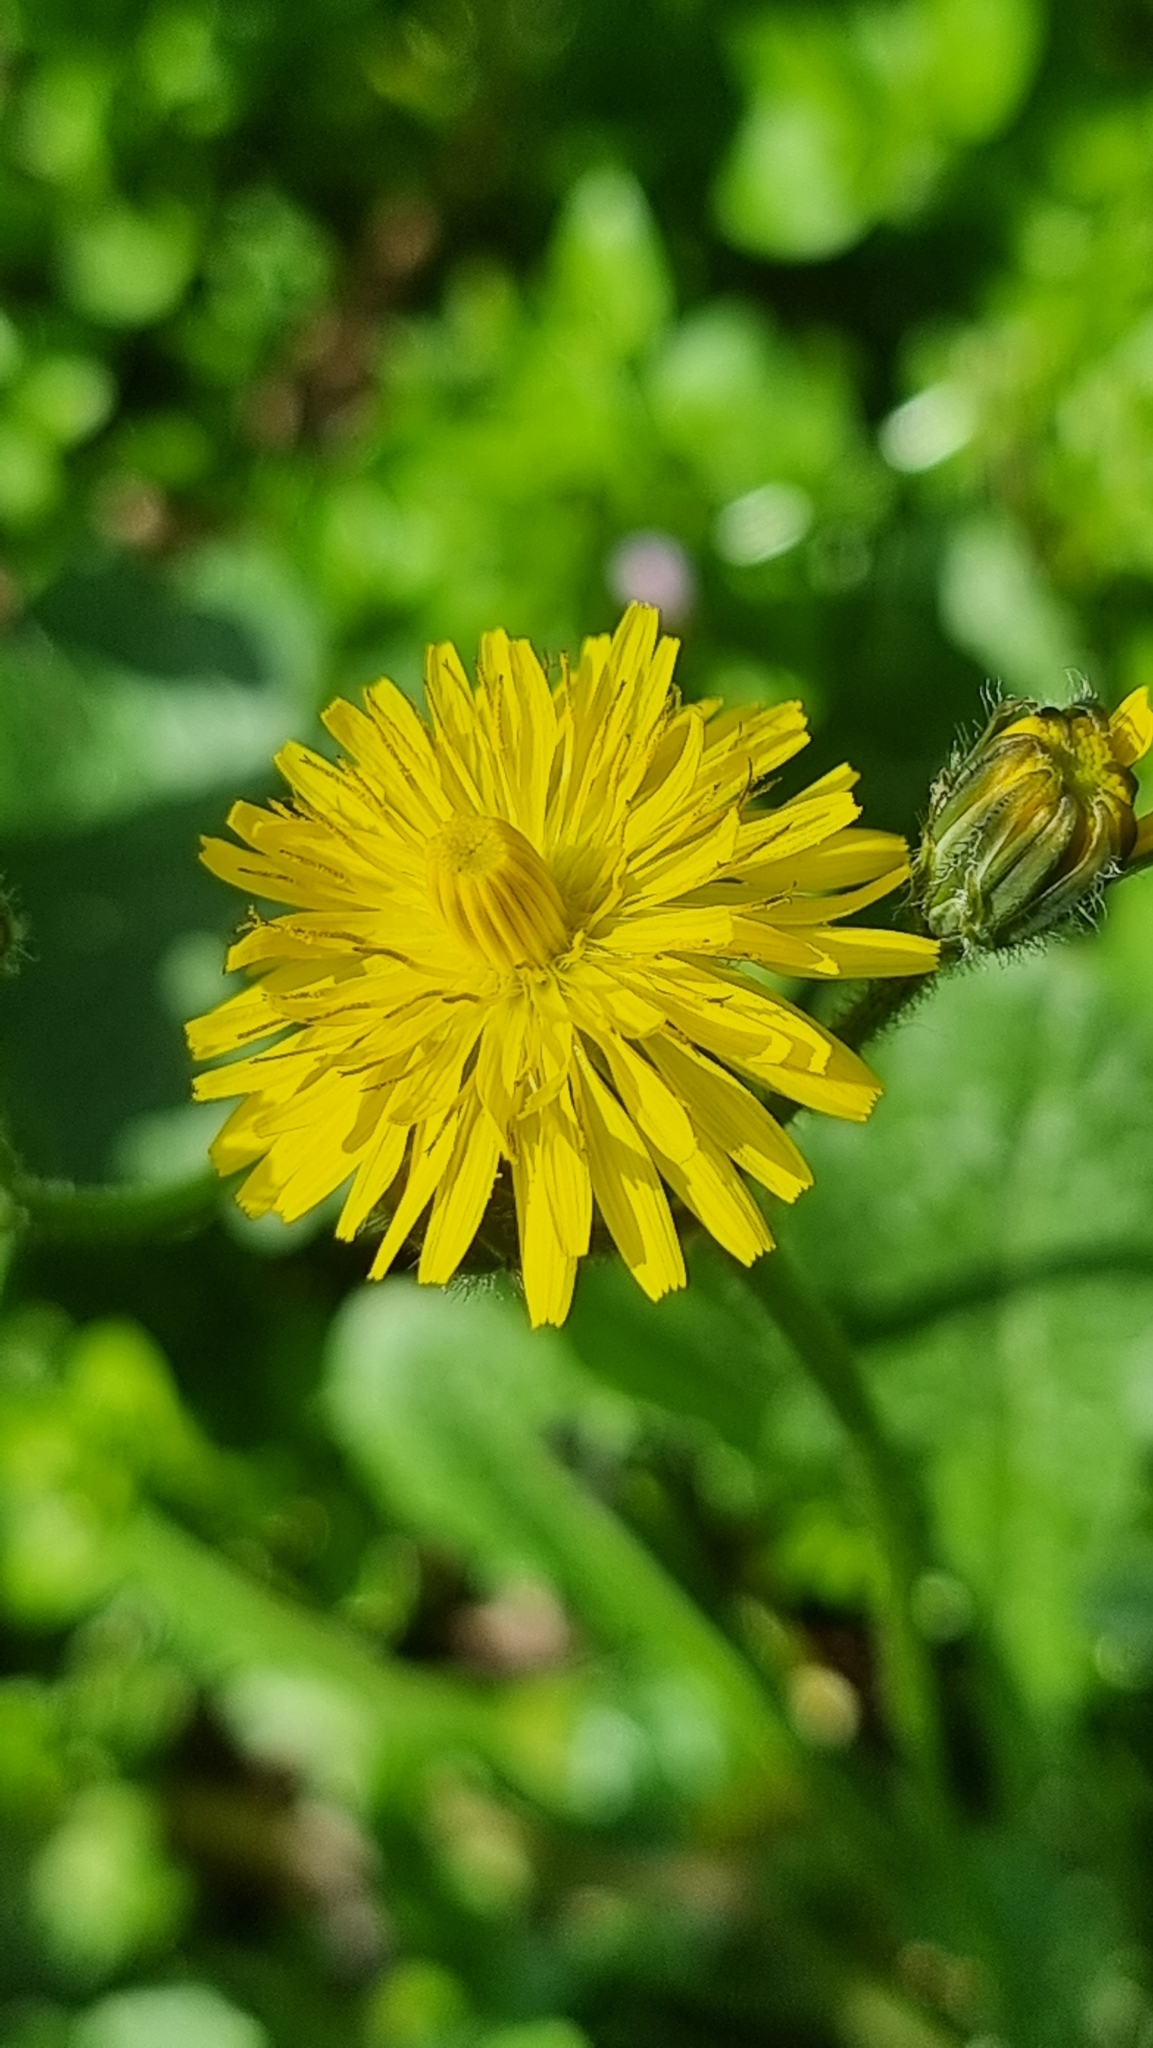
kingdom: Plantae
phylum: Tracheophyta
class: Magnoliopsida
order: Asterales
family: Asteraceae
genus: Crepis
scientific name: Crepis sancta
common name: Hawk's-beard
